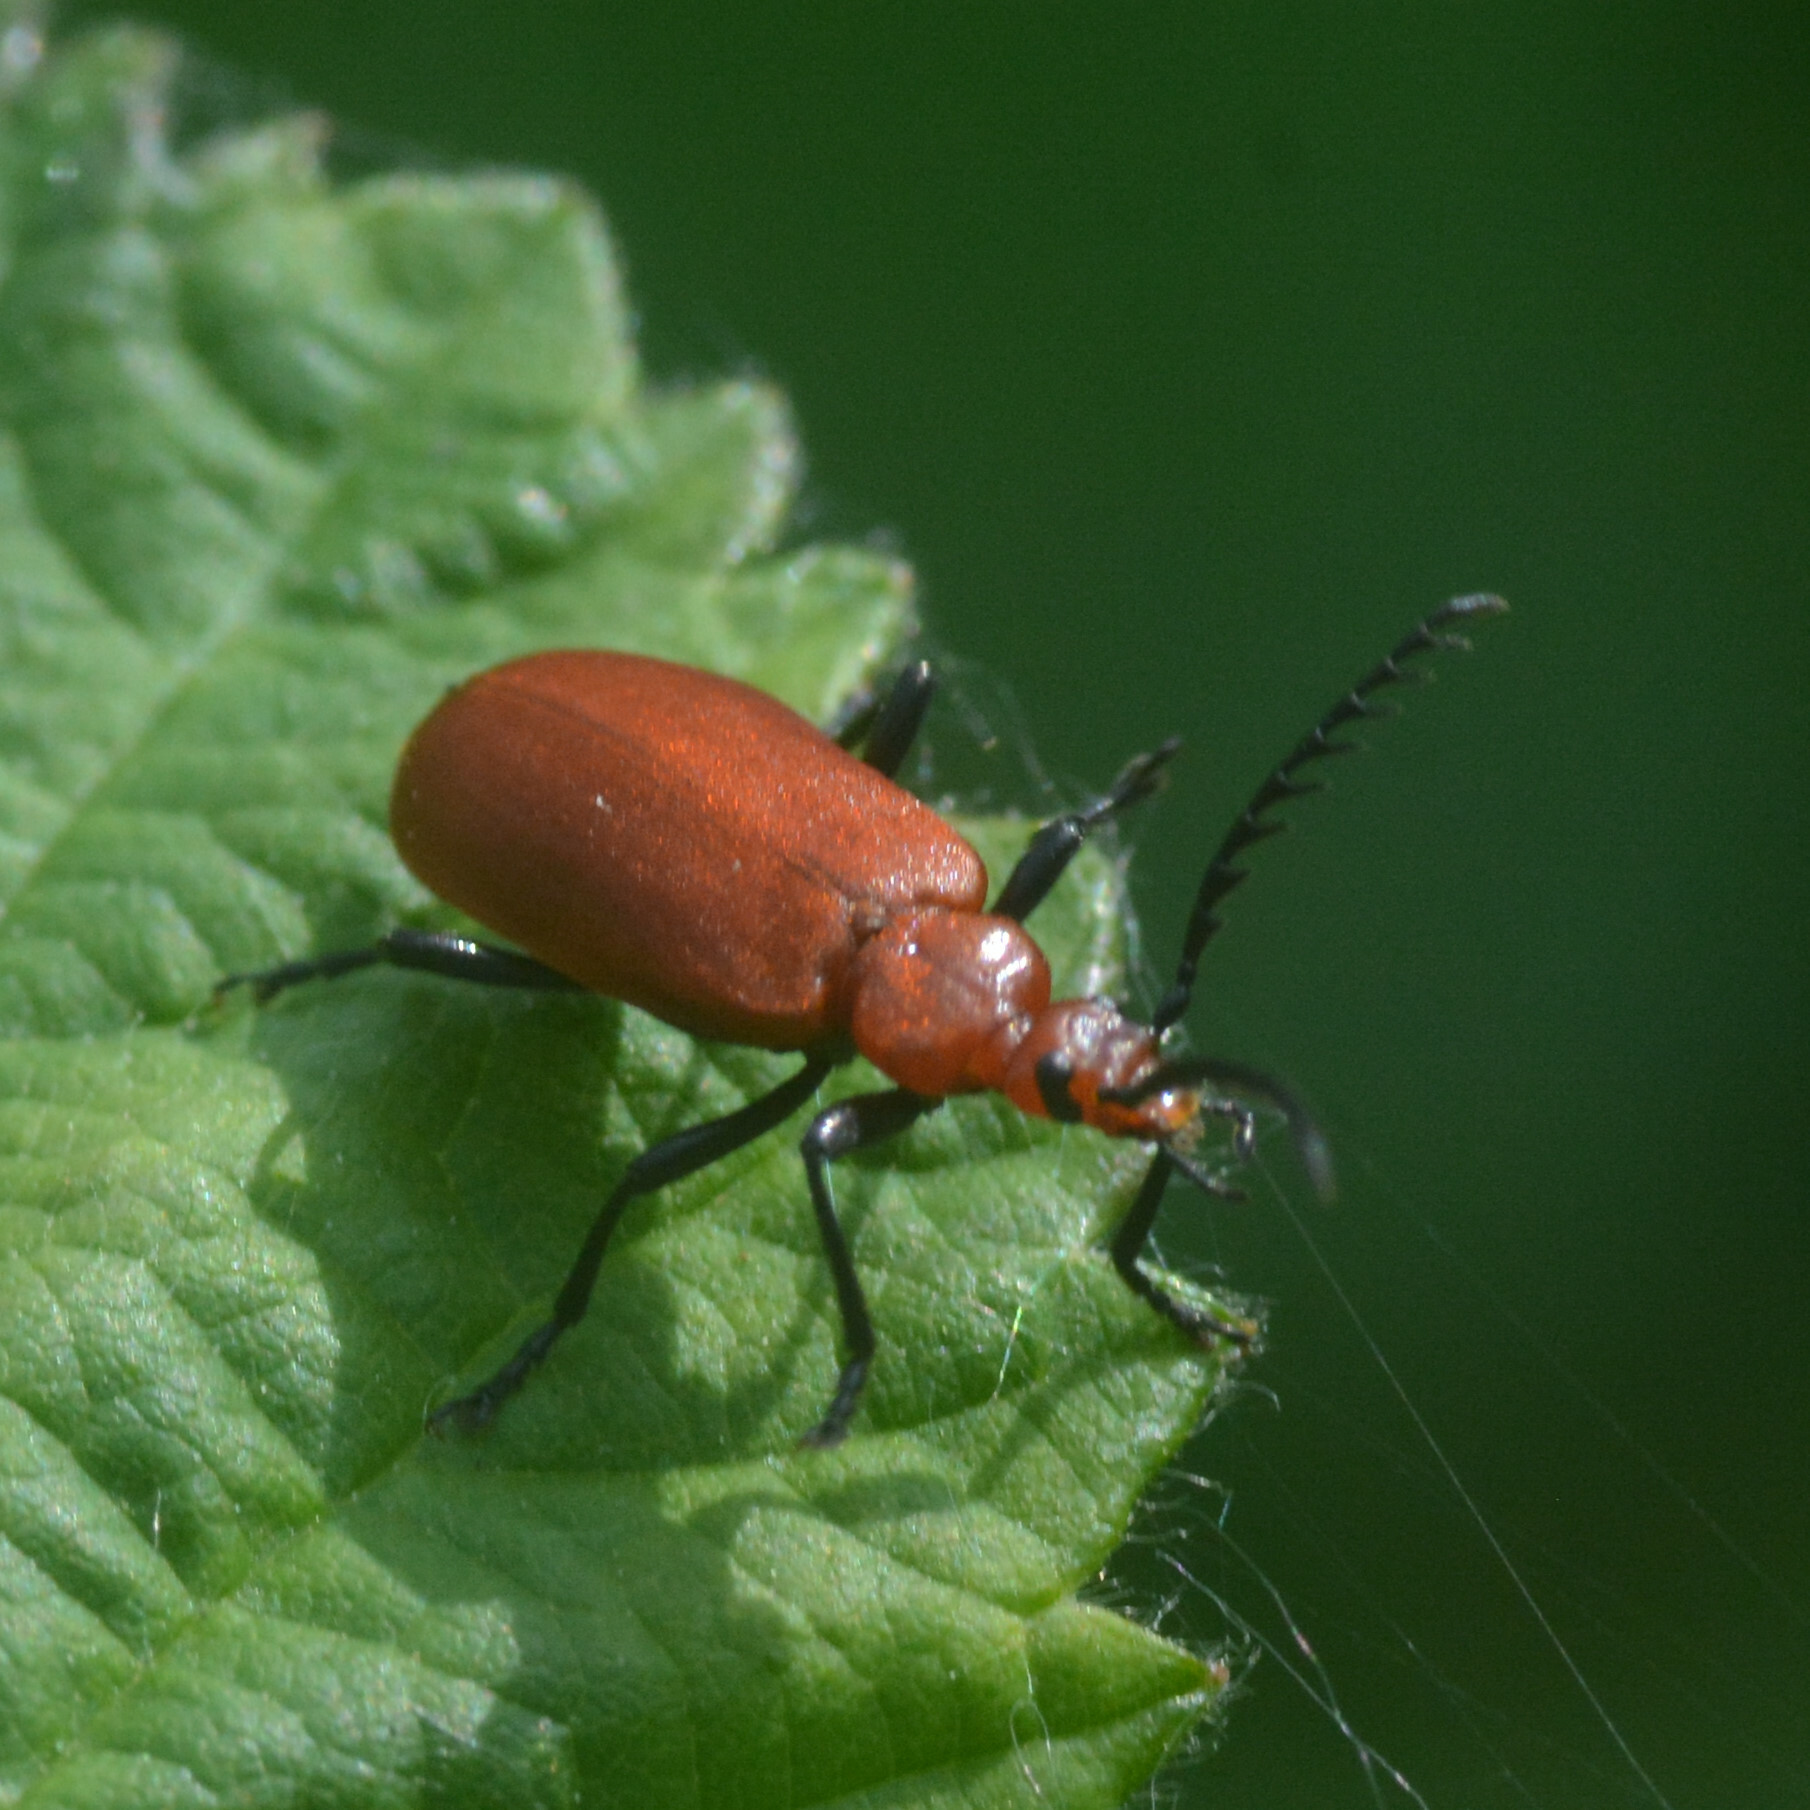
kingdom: Animalia
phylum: Arthropoda
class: Insecta
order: Coleoptera
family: Pyrochroidae
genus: Pyrochroa
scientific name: Pyrochroa serraticornis
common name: Red-headed cardinal beetle
